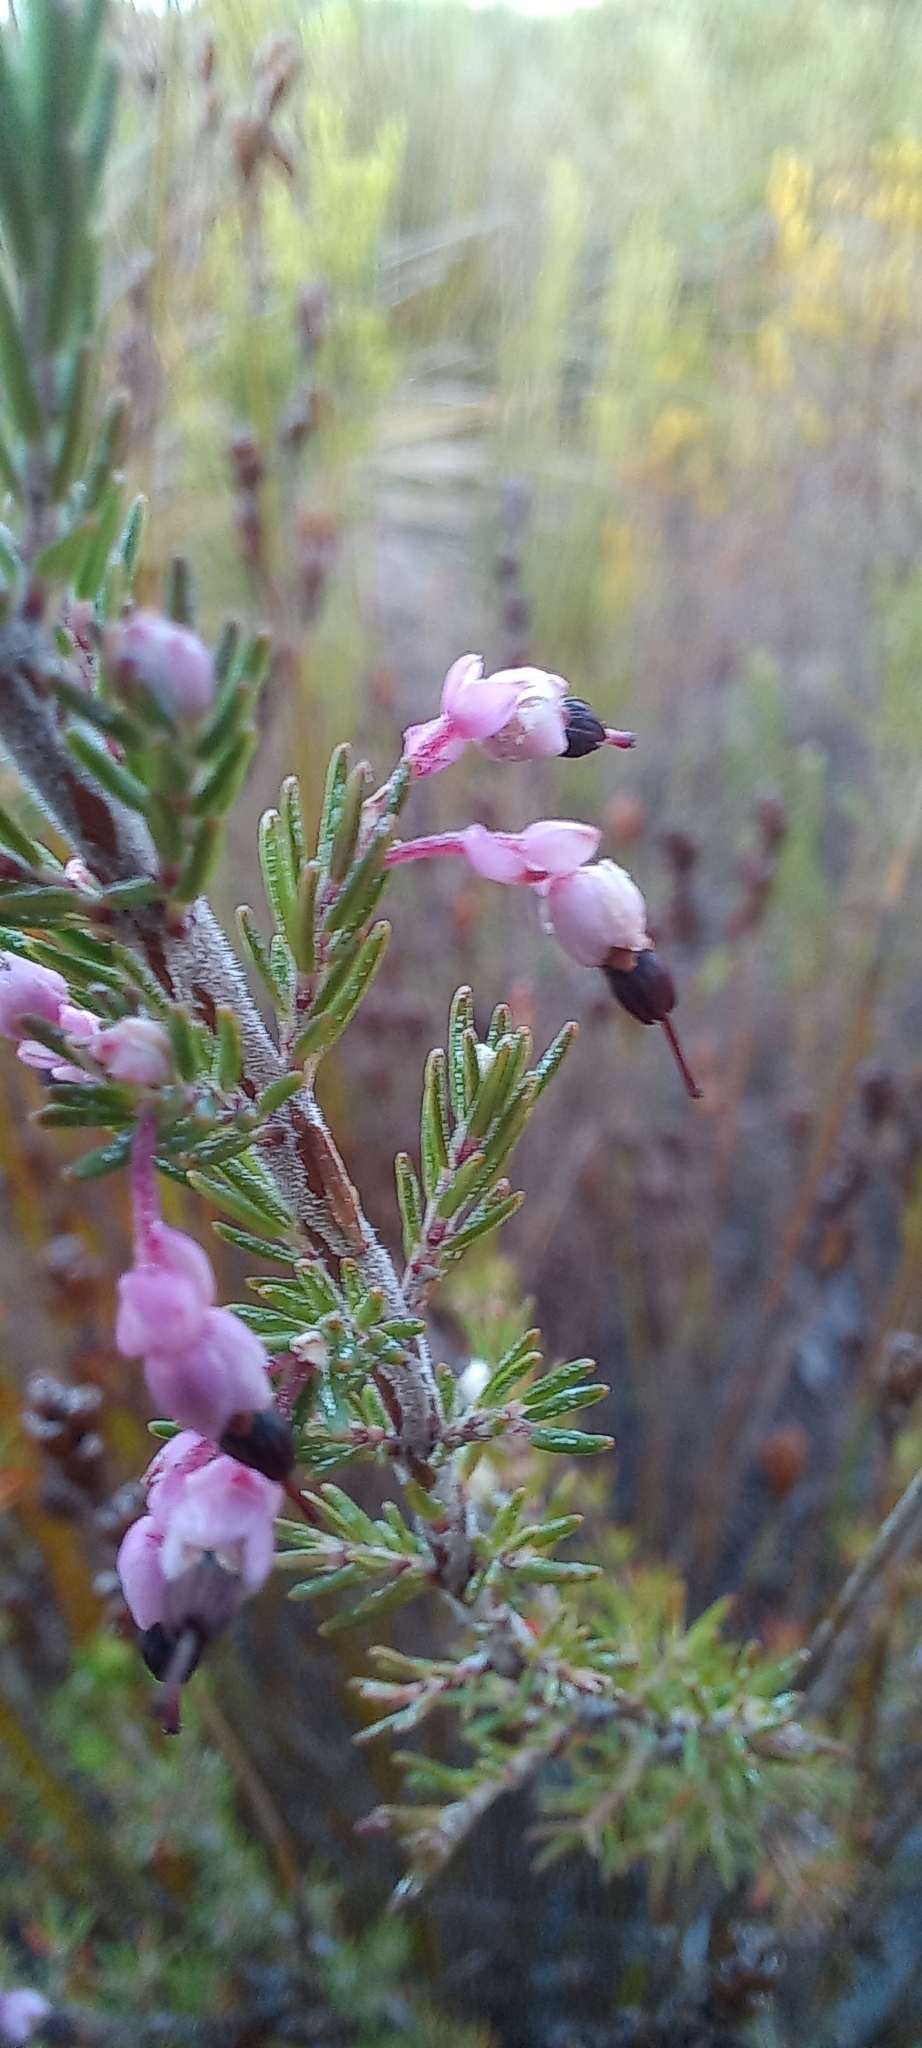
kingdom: Plantae
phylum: Tracheophyta
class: Magnoliopsida
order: Ericales
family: Ericaceae
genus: Erica
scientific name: Erica placentiflora
